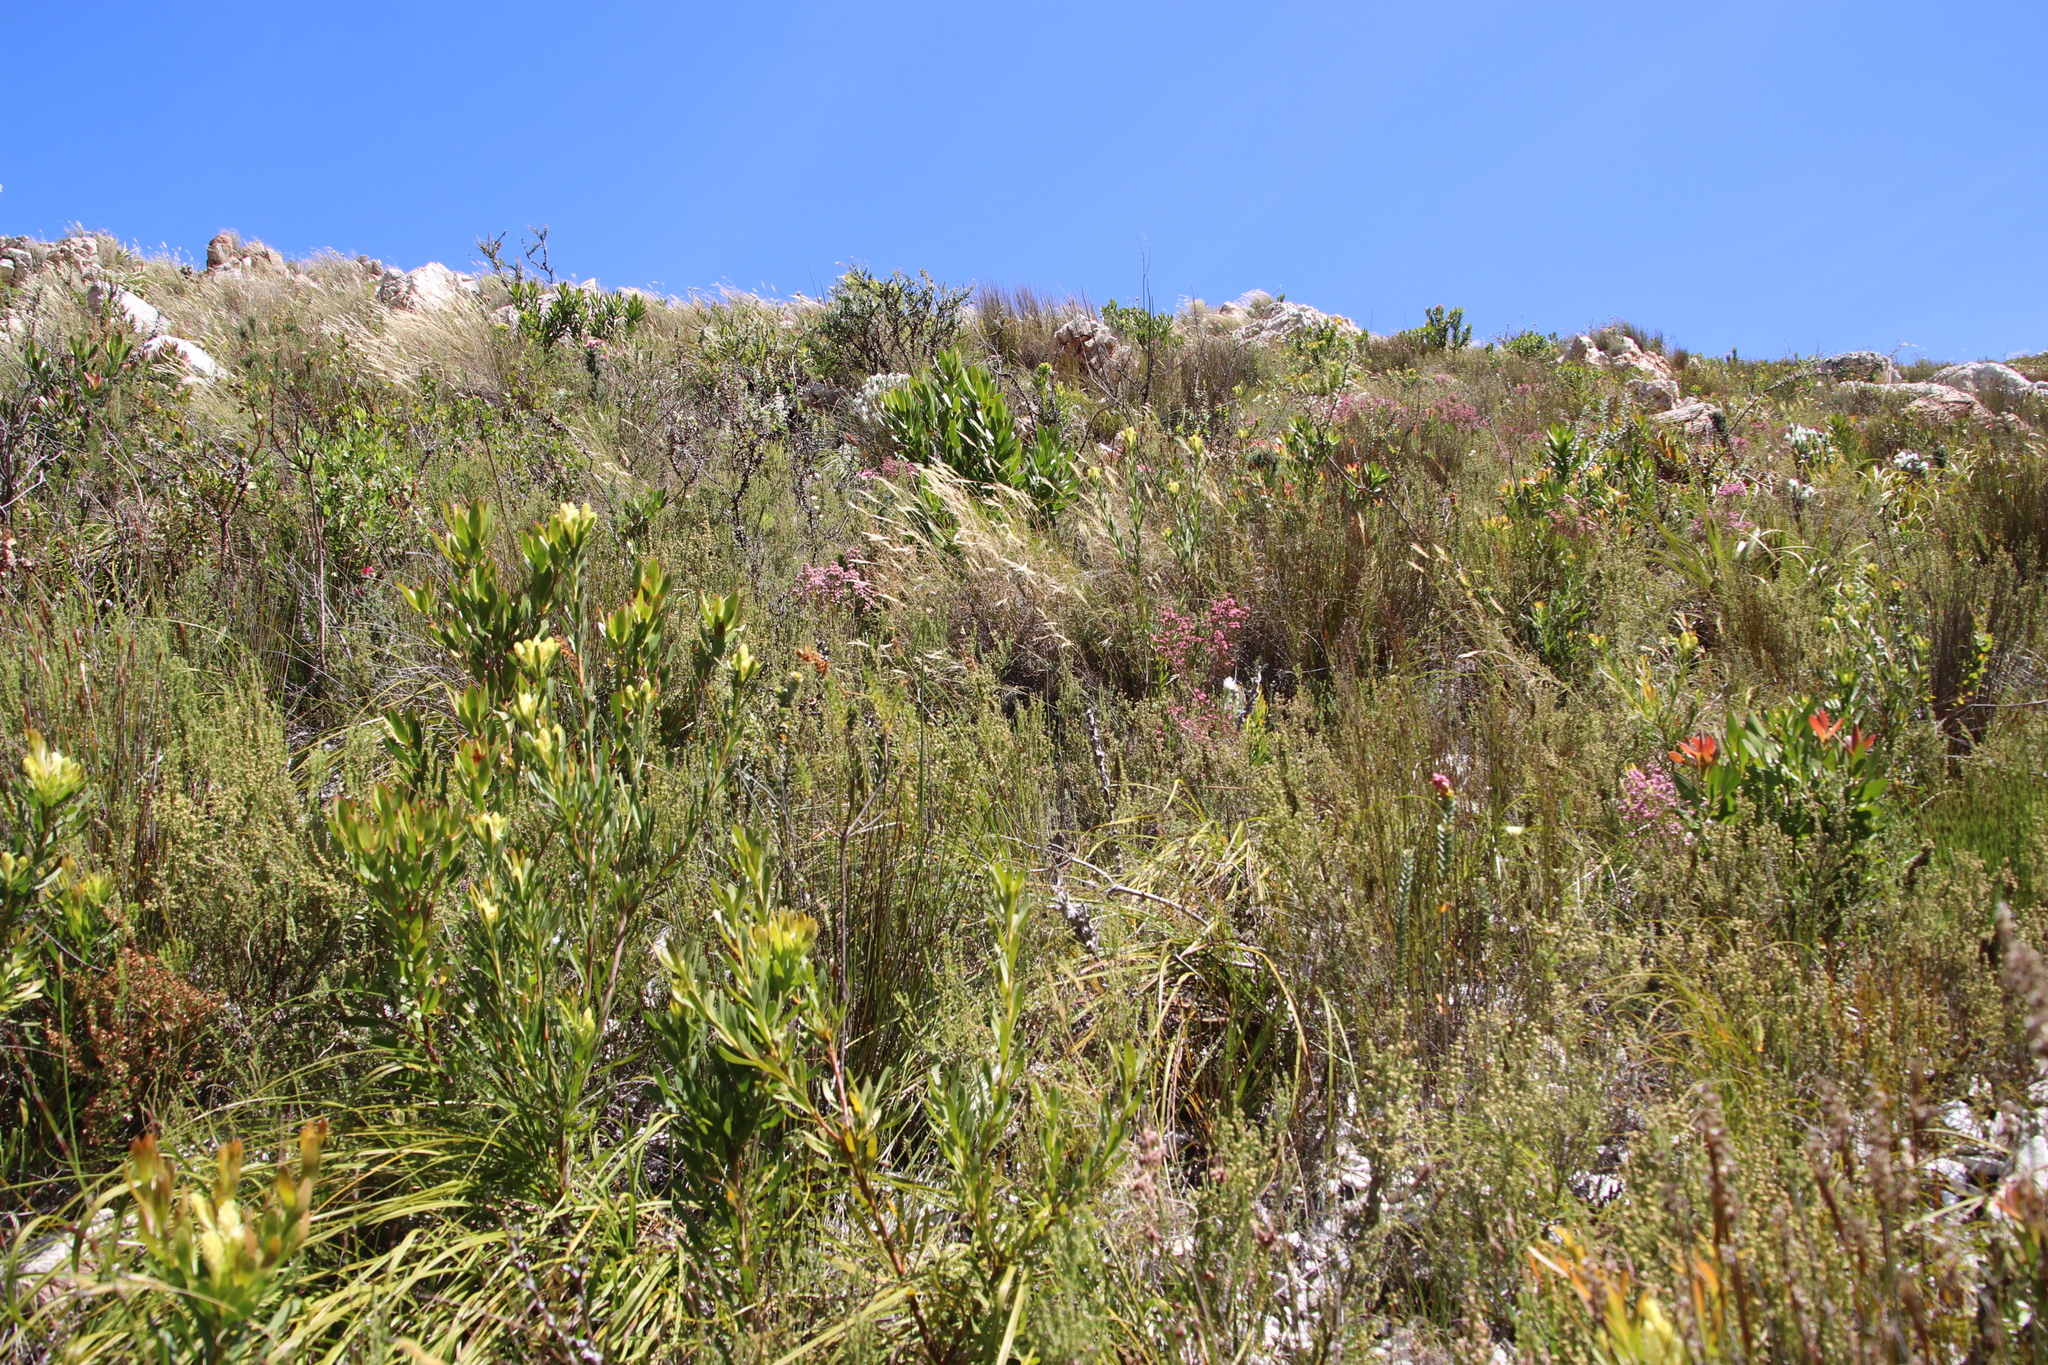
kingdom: Plantae
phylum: Tracheophyta
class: Magnoliopsida
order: Ericales
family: Ericaceae
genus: Erica
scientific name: Erica imbricata
